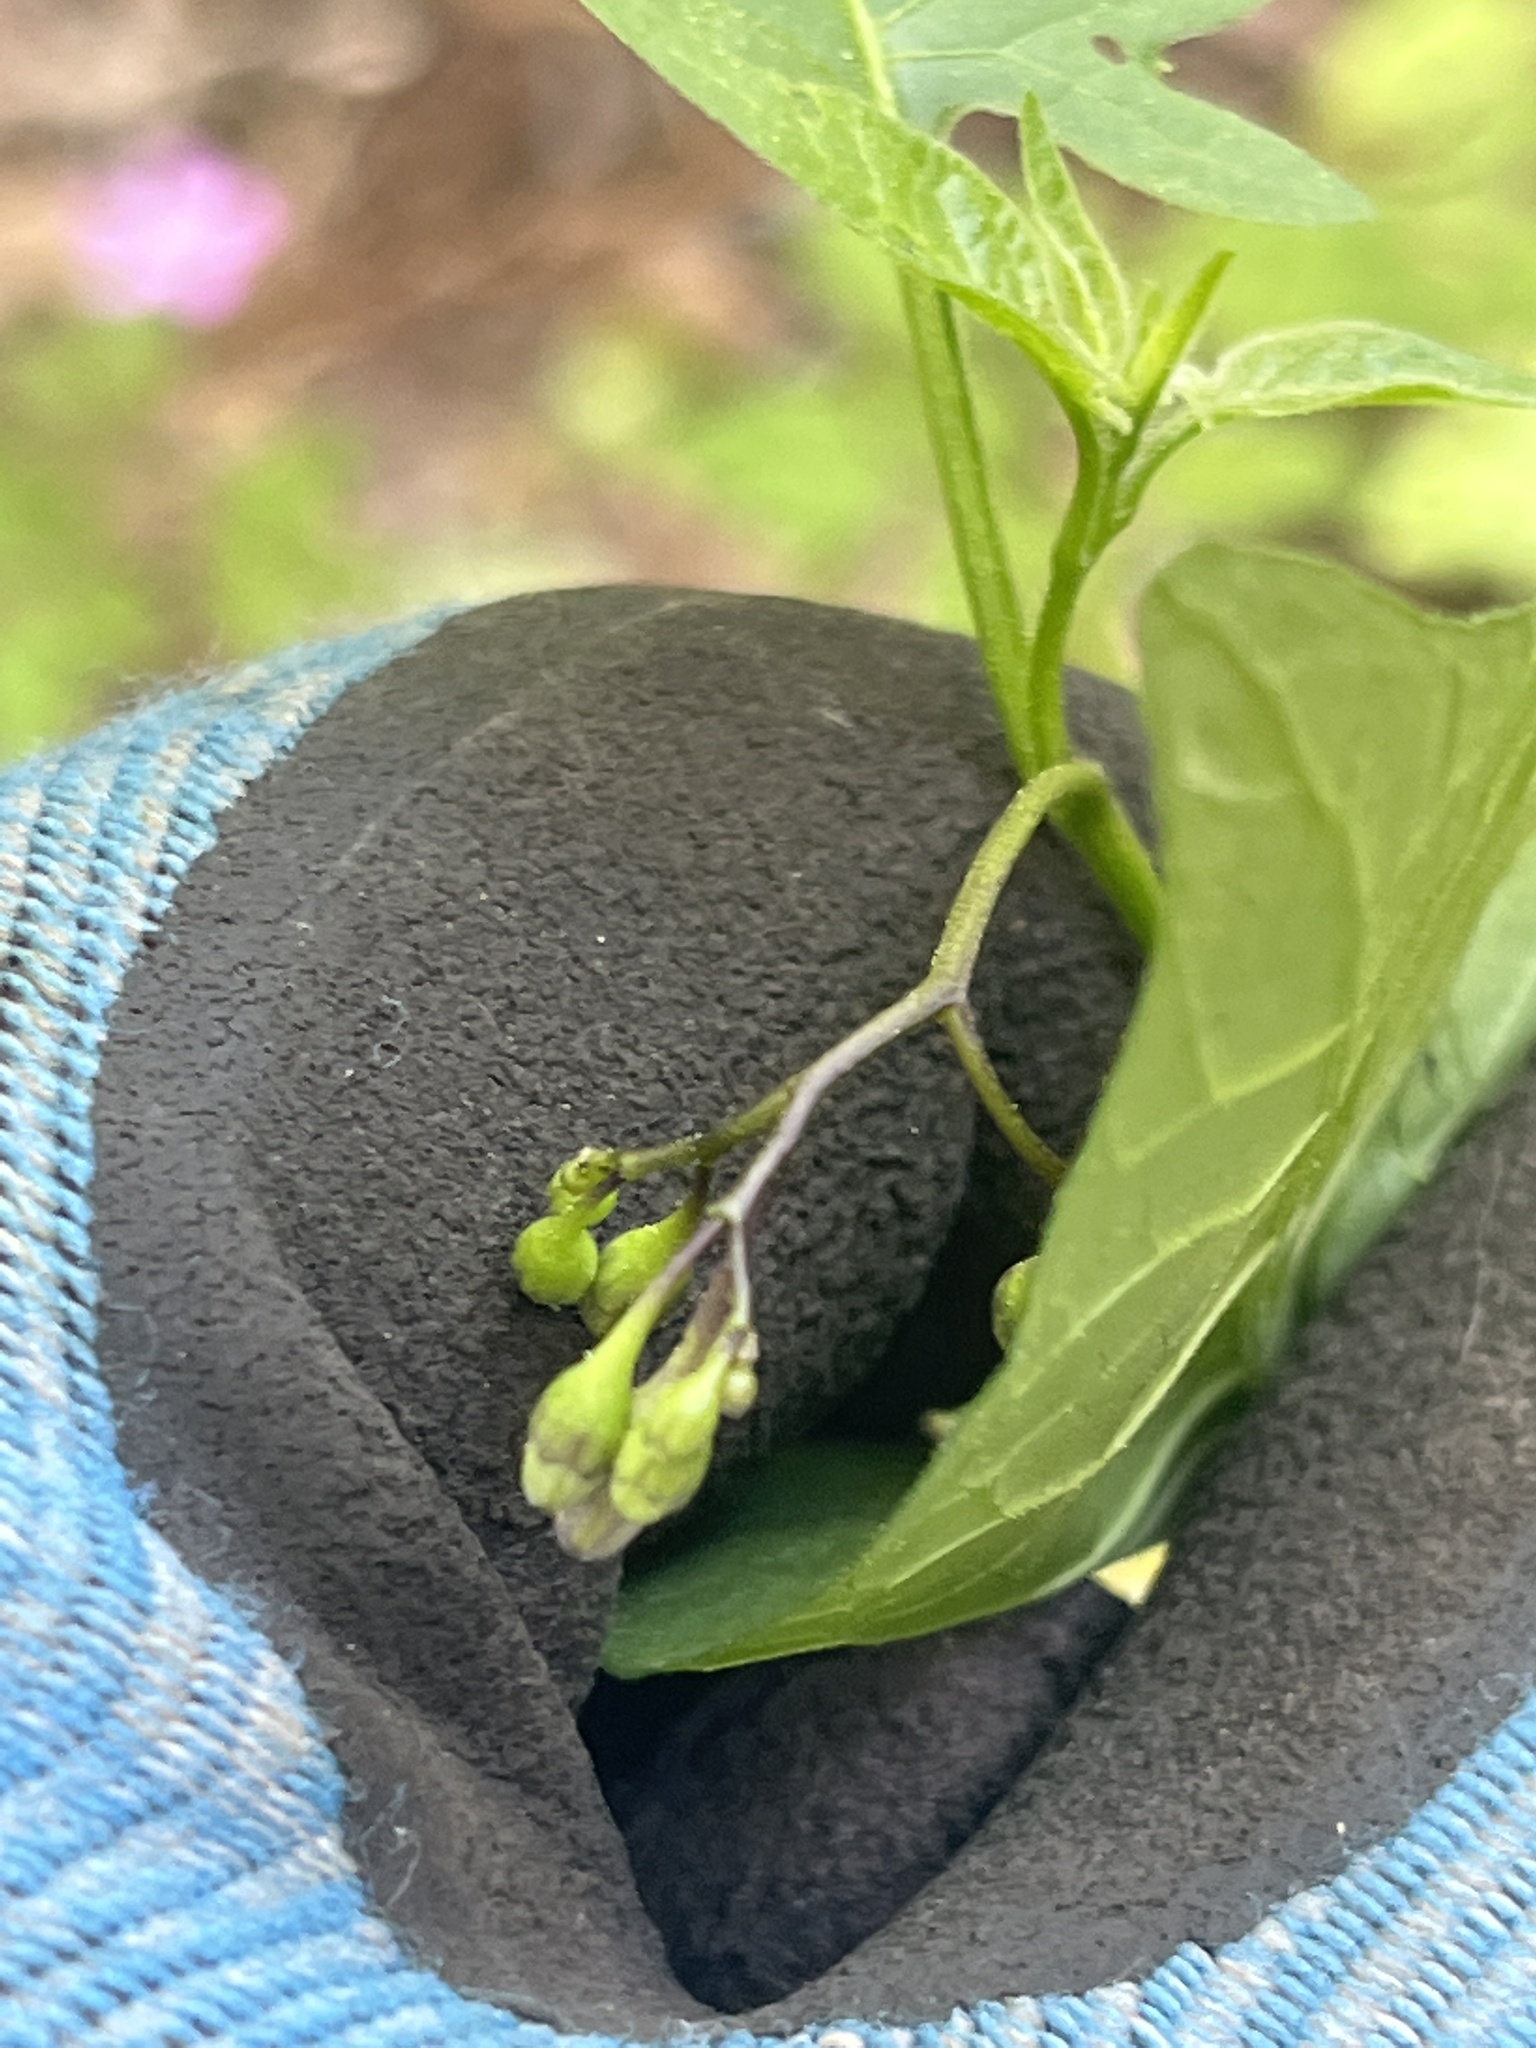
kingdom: Plantae
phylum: Tracheophyta
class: Magnoliopsida
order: Solanales
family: Solanaceae
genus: Solanum
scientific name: Solanum dulcamara
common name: Climbing nightshade
